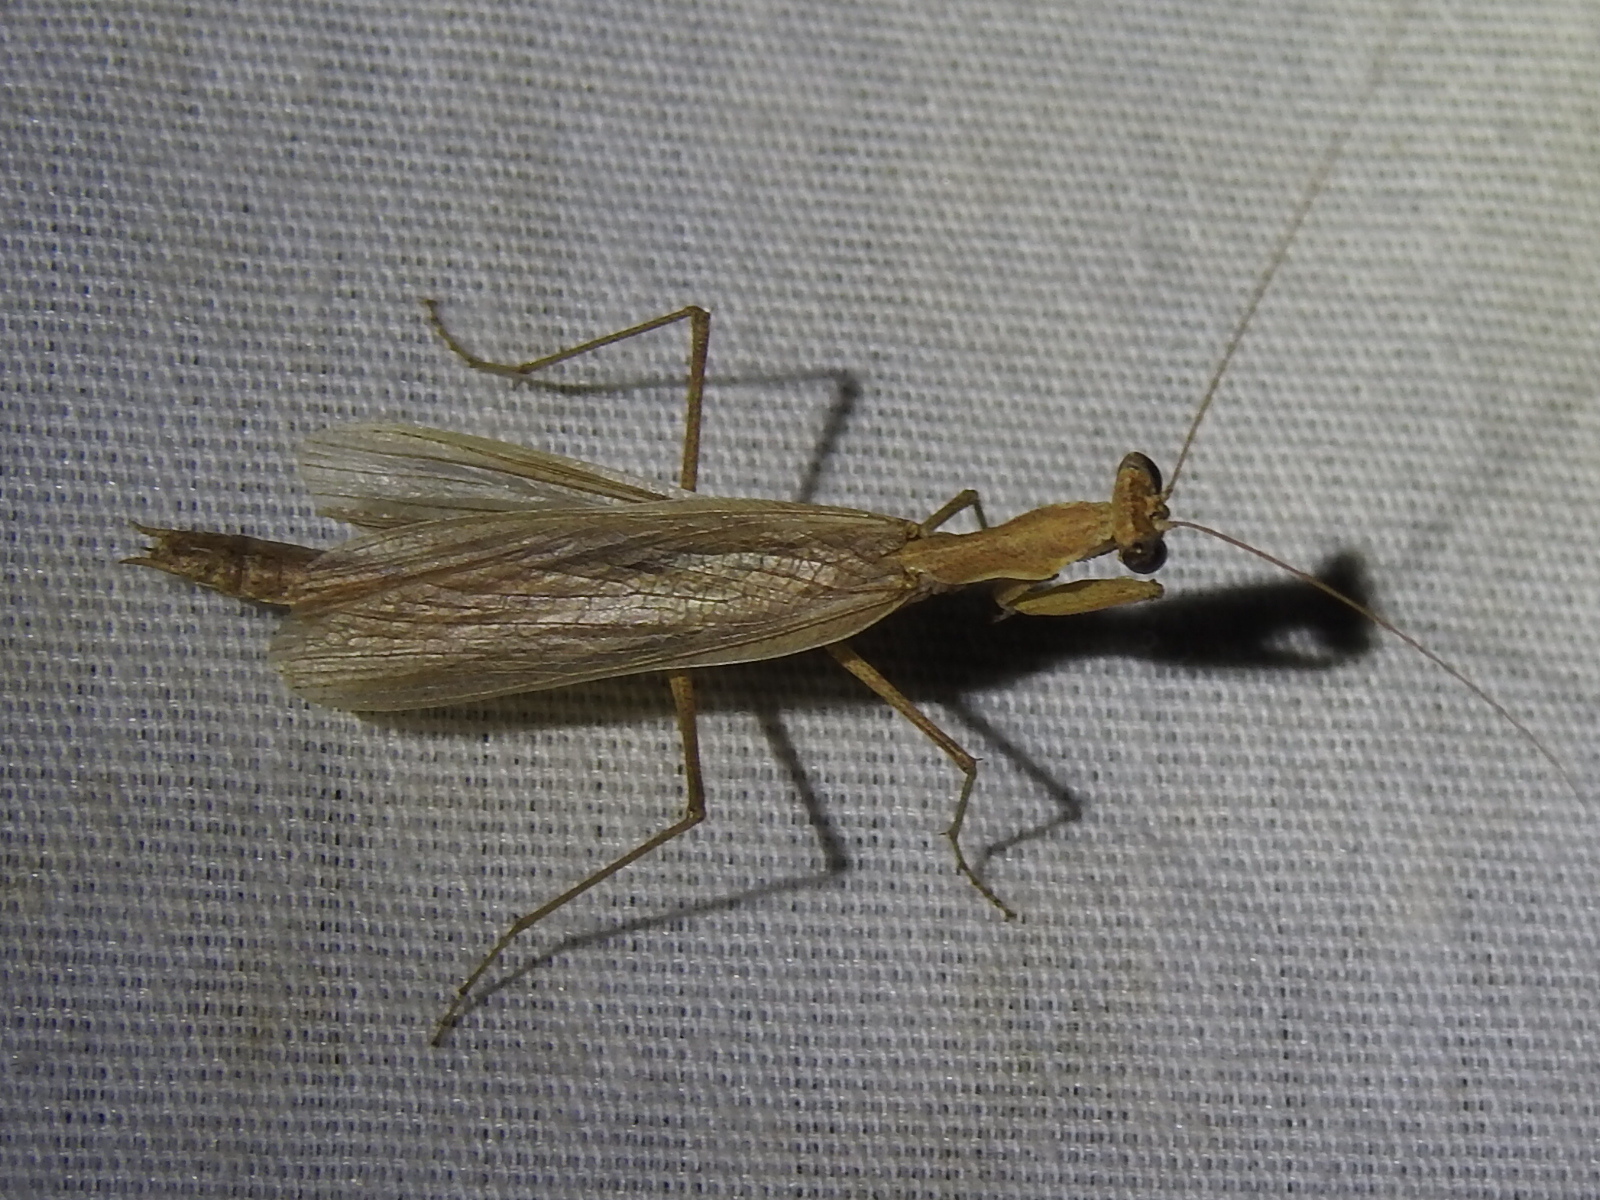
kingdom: Animalia
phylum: Arthropoda
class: Insecta
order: Mantodea
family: Amelidae
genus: Litaneutria
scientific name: Litaneutria minor
